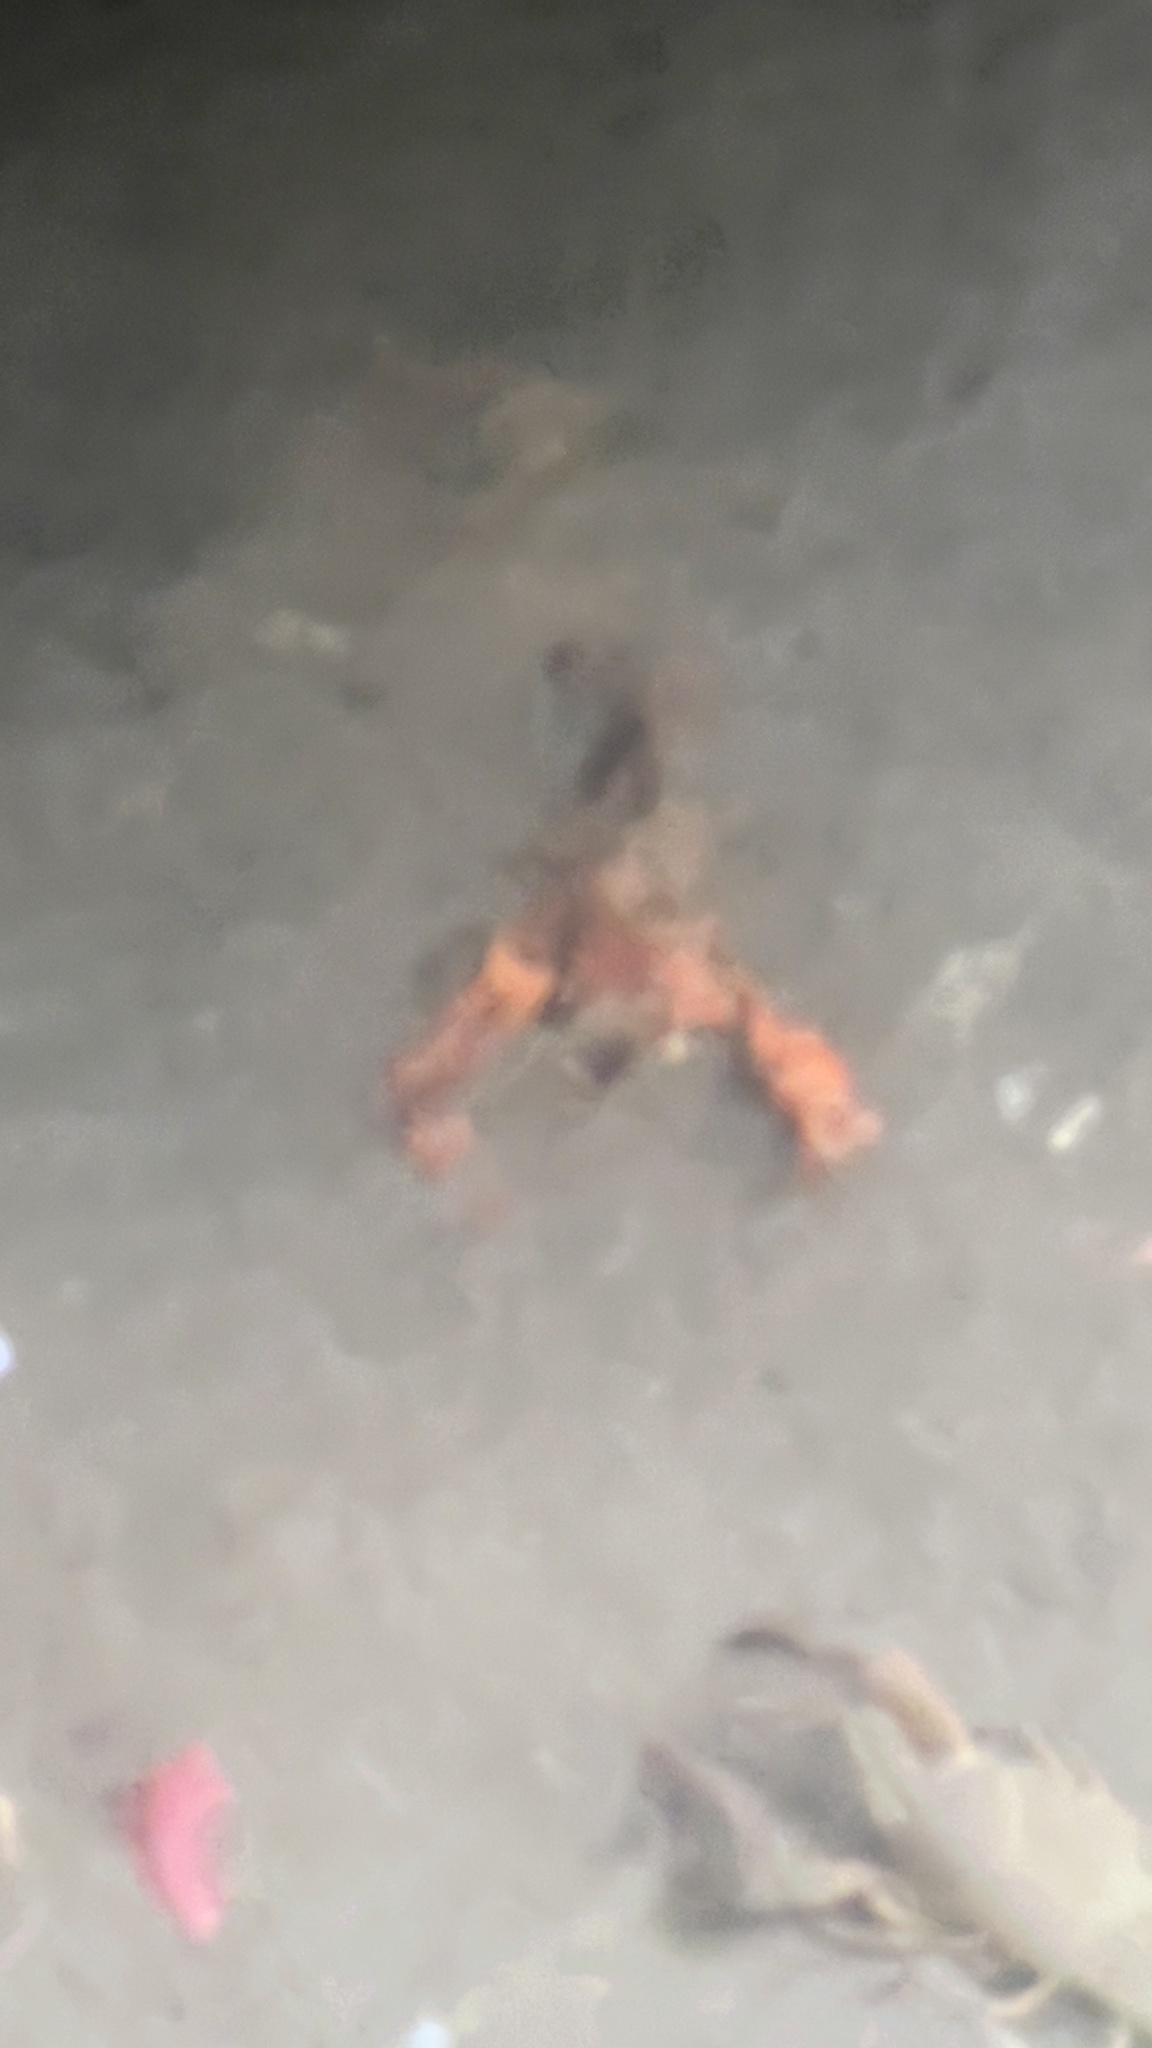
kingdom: Animalia
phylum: Arthropoda
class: Malacostraca
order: Decapoda
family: Cambaridae
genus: Procambarus
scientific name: Procambarus clarkii
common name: Red swamp crayfish
